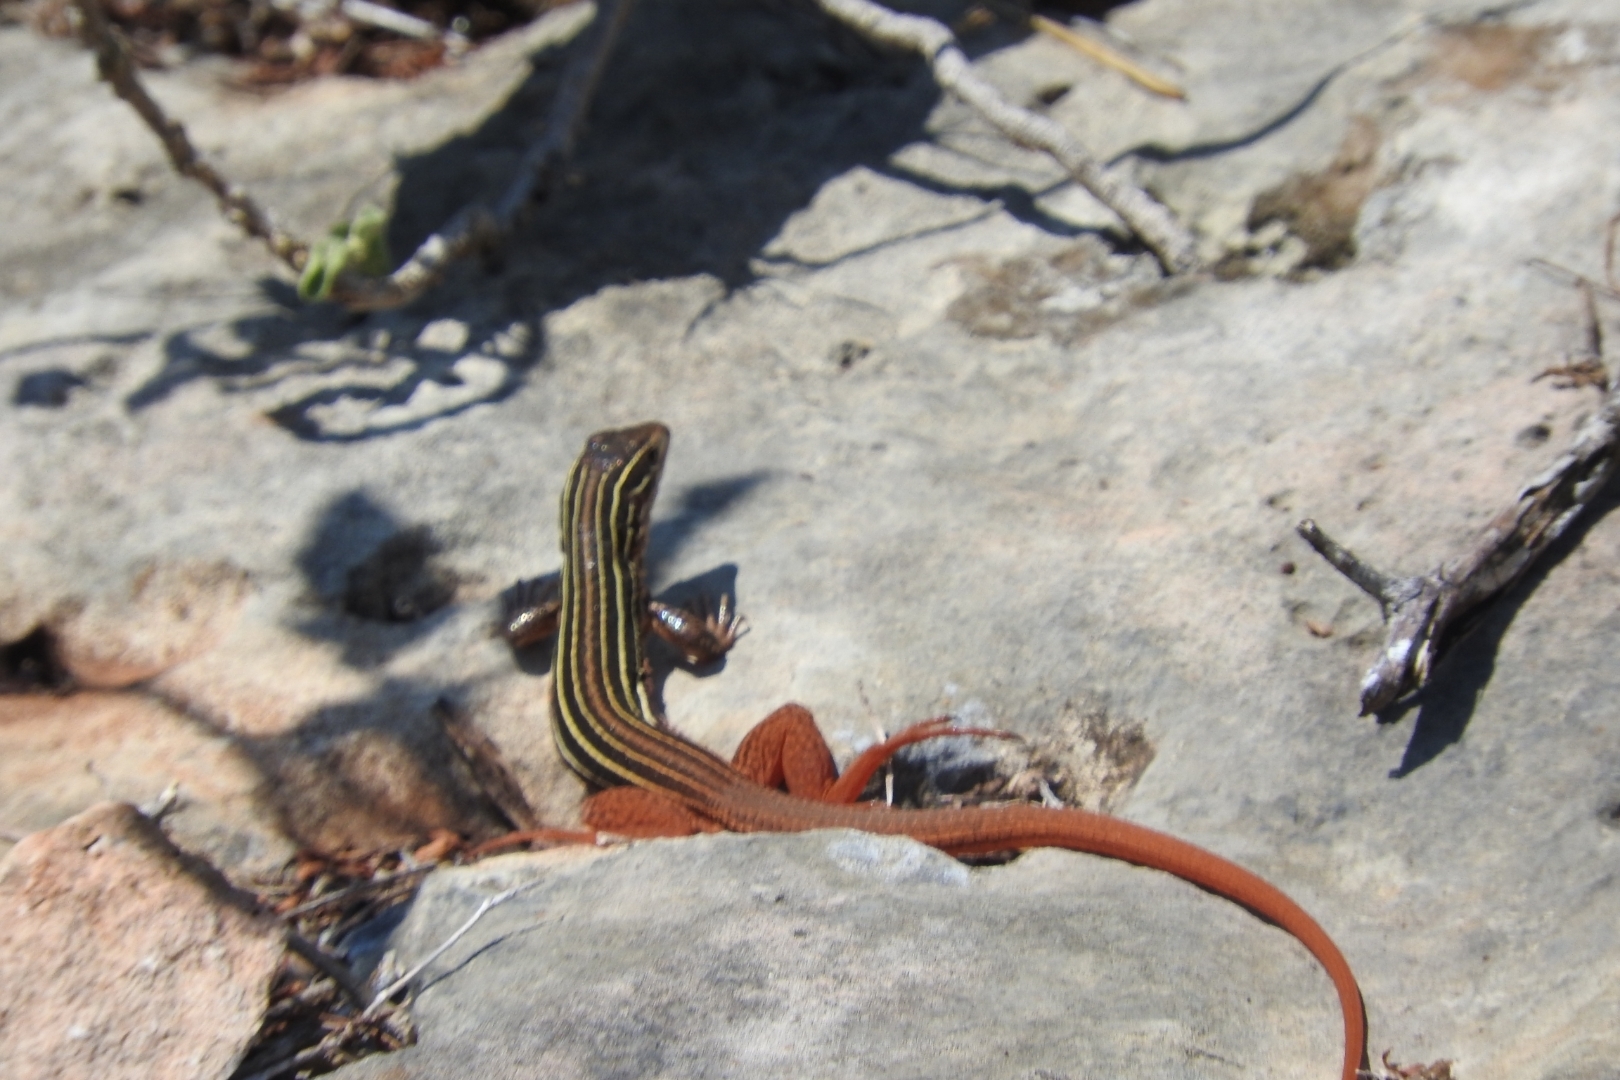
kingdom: Animalia
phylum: Chordata
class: Squamata
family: Teiidae
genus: Aspidoscelis
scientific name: Aspidoscelis angusticeps
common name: Yucatan whiptail
